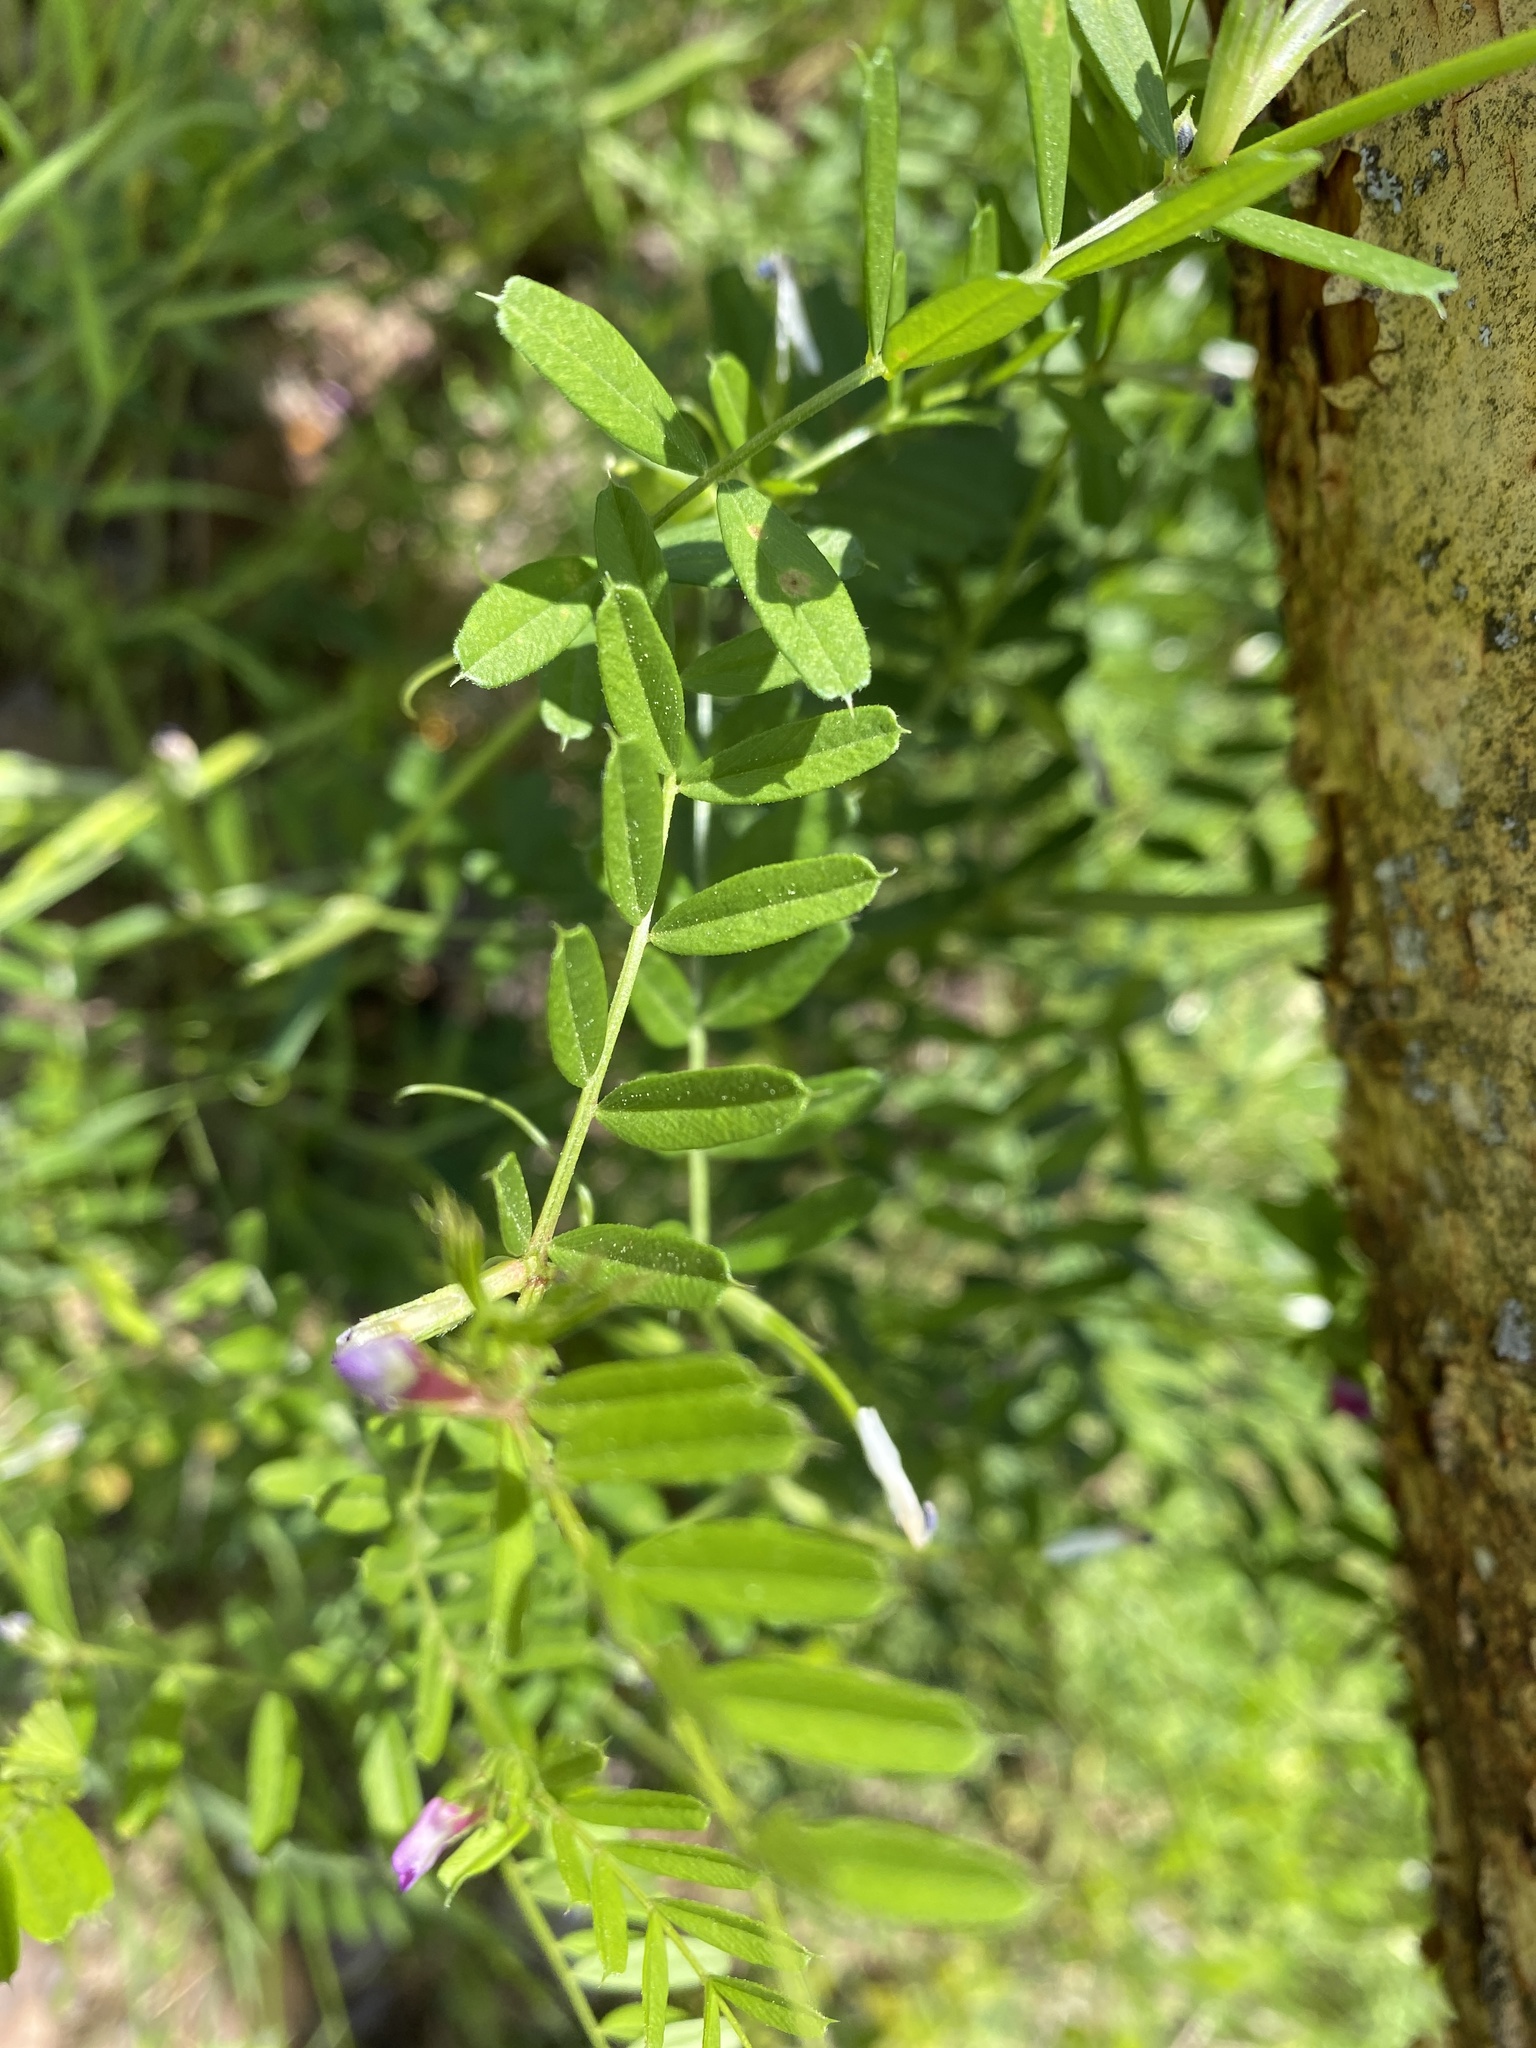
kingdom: Plantae
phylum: Tracheophyta
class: Magnoliopsida
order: Fabales
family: Fabaceae
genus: Vicia
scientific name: Vicia sativa
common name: Garden vetch
